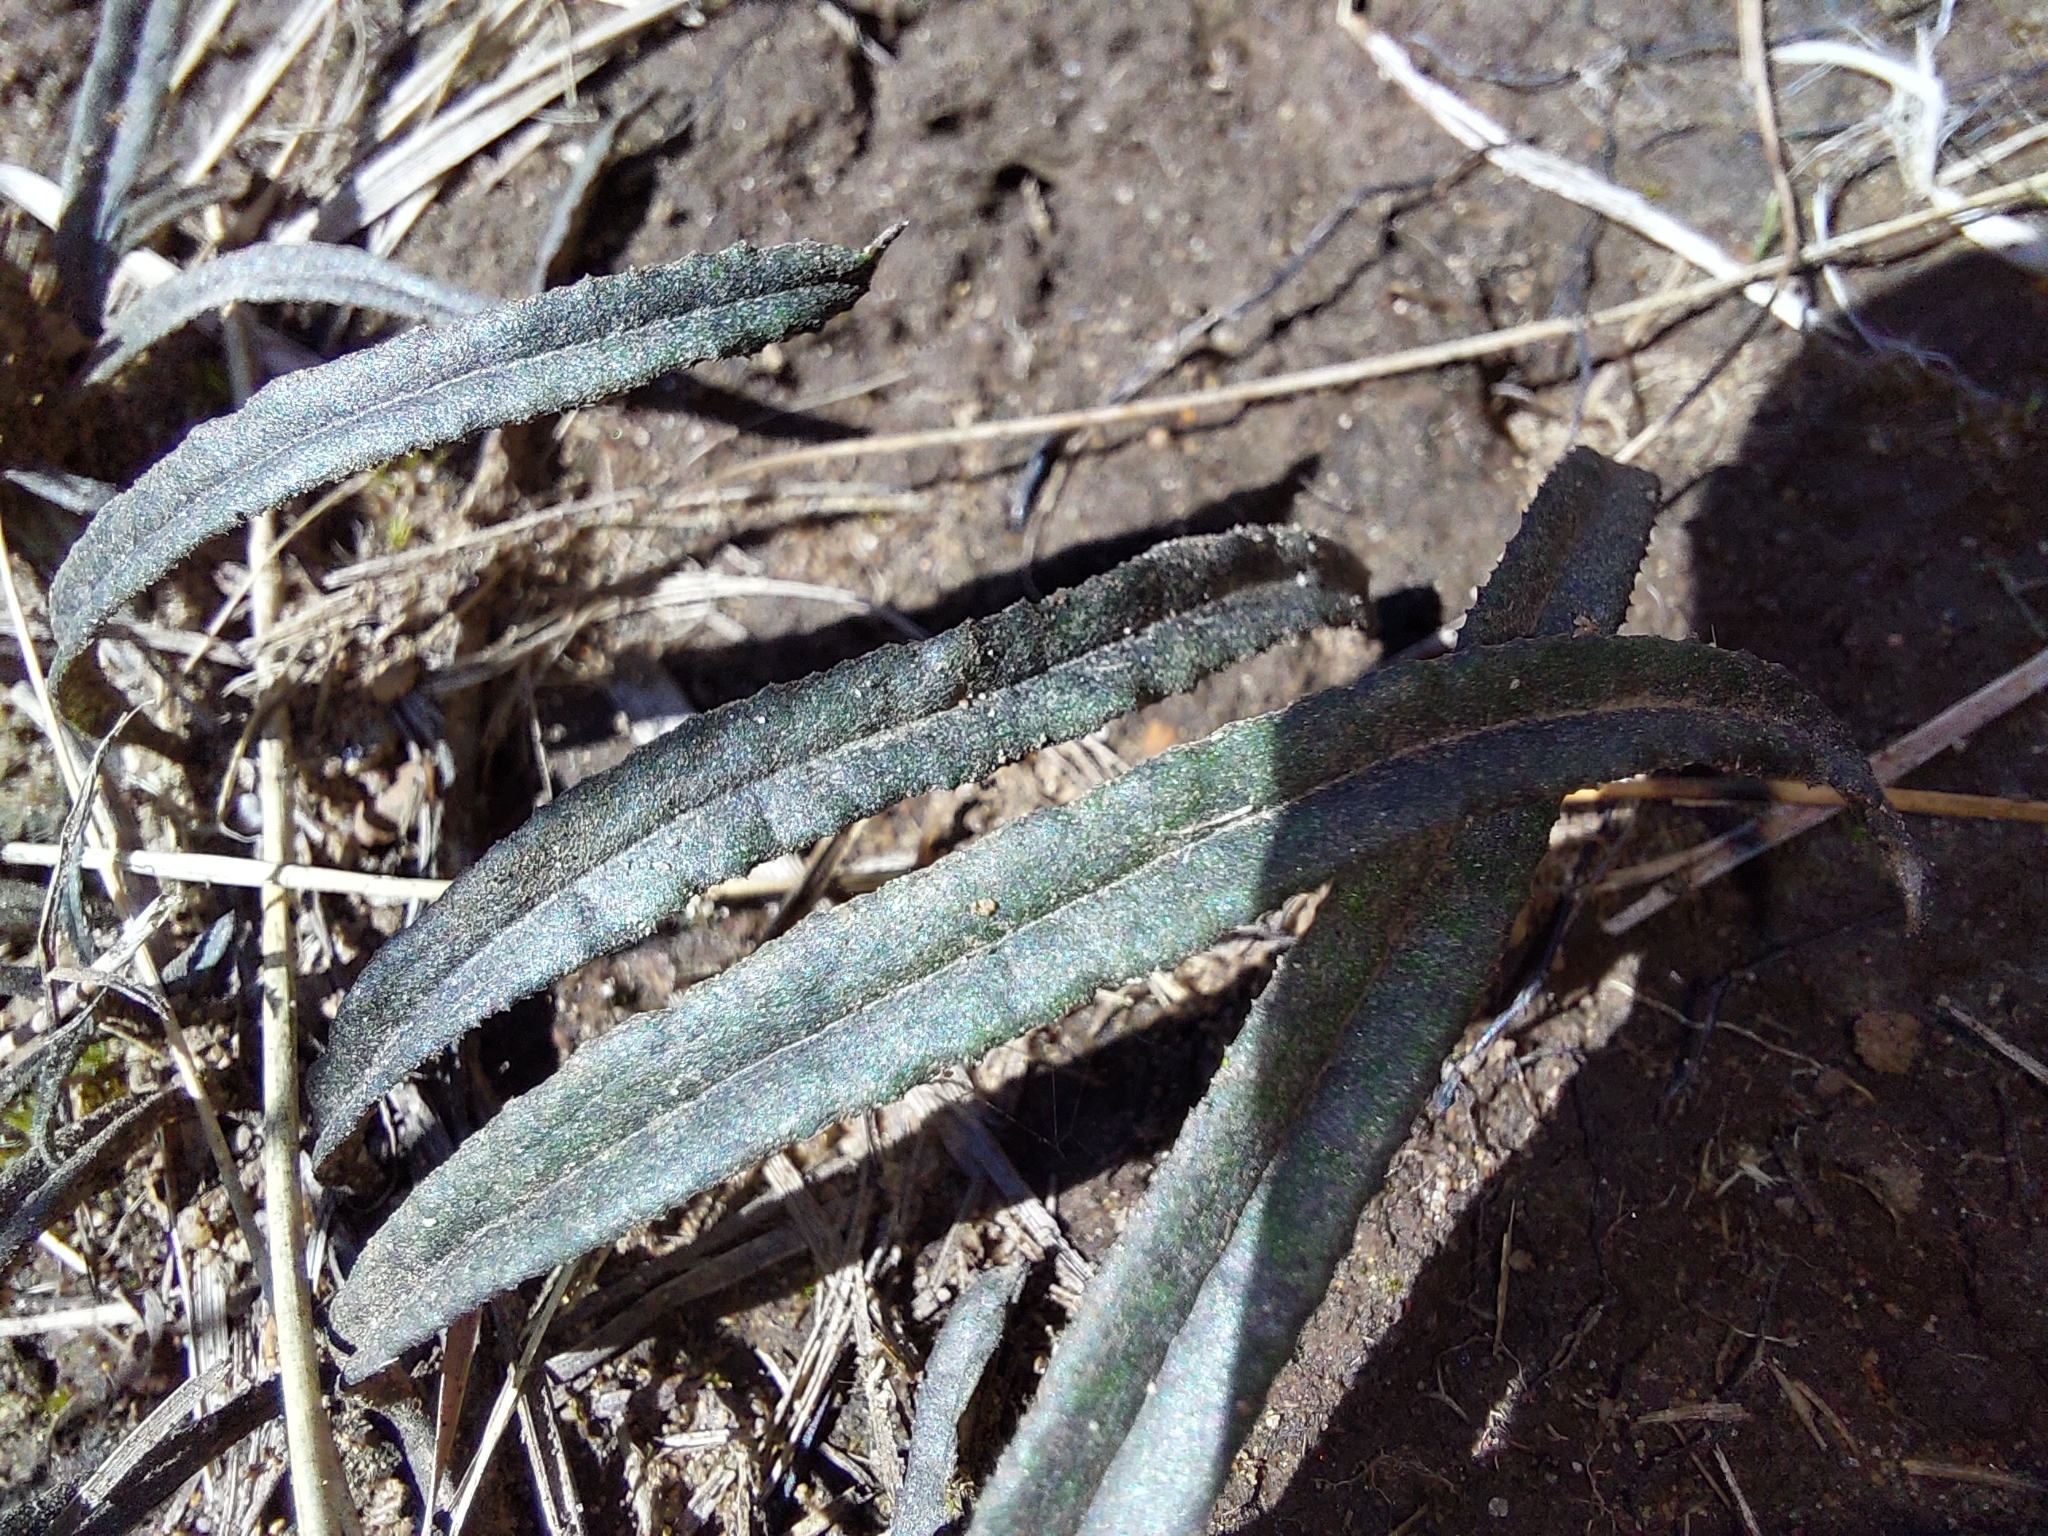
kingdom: Plantae
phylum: Tracheophyta
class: Magnoliopsida
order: Asterales
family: Asteraceae
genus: Dicoma
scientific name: Dicoma anomala
